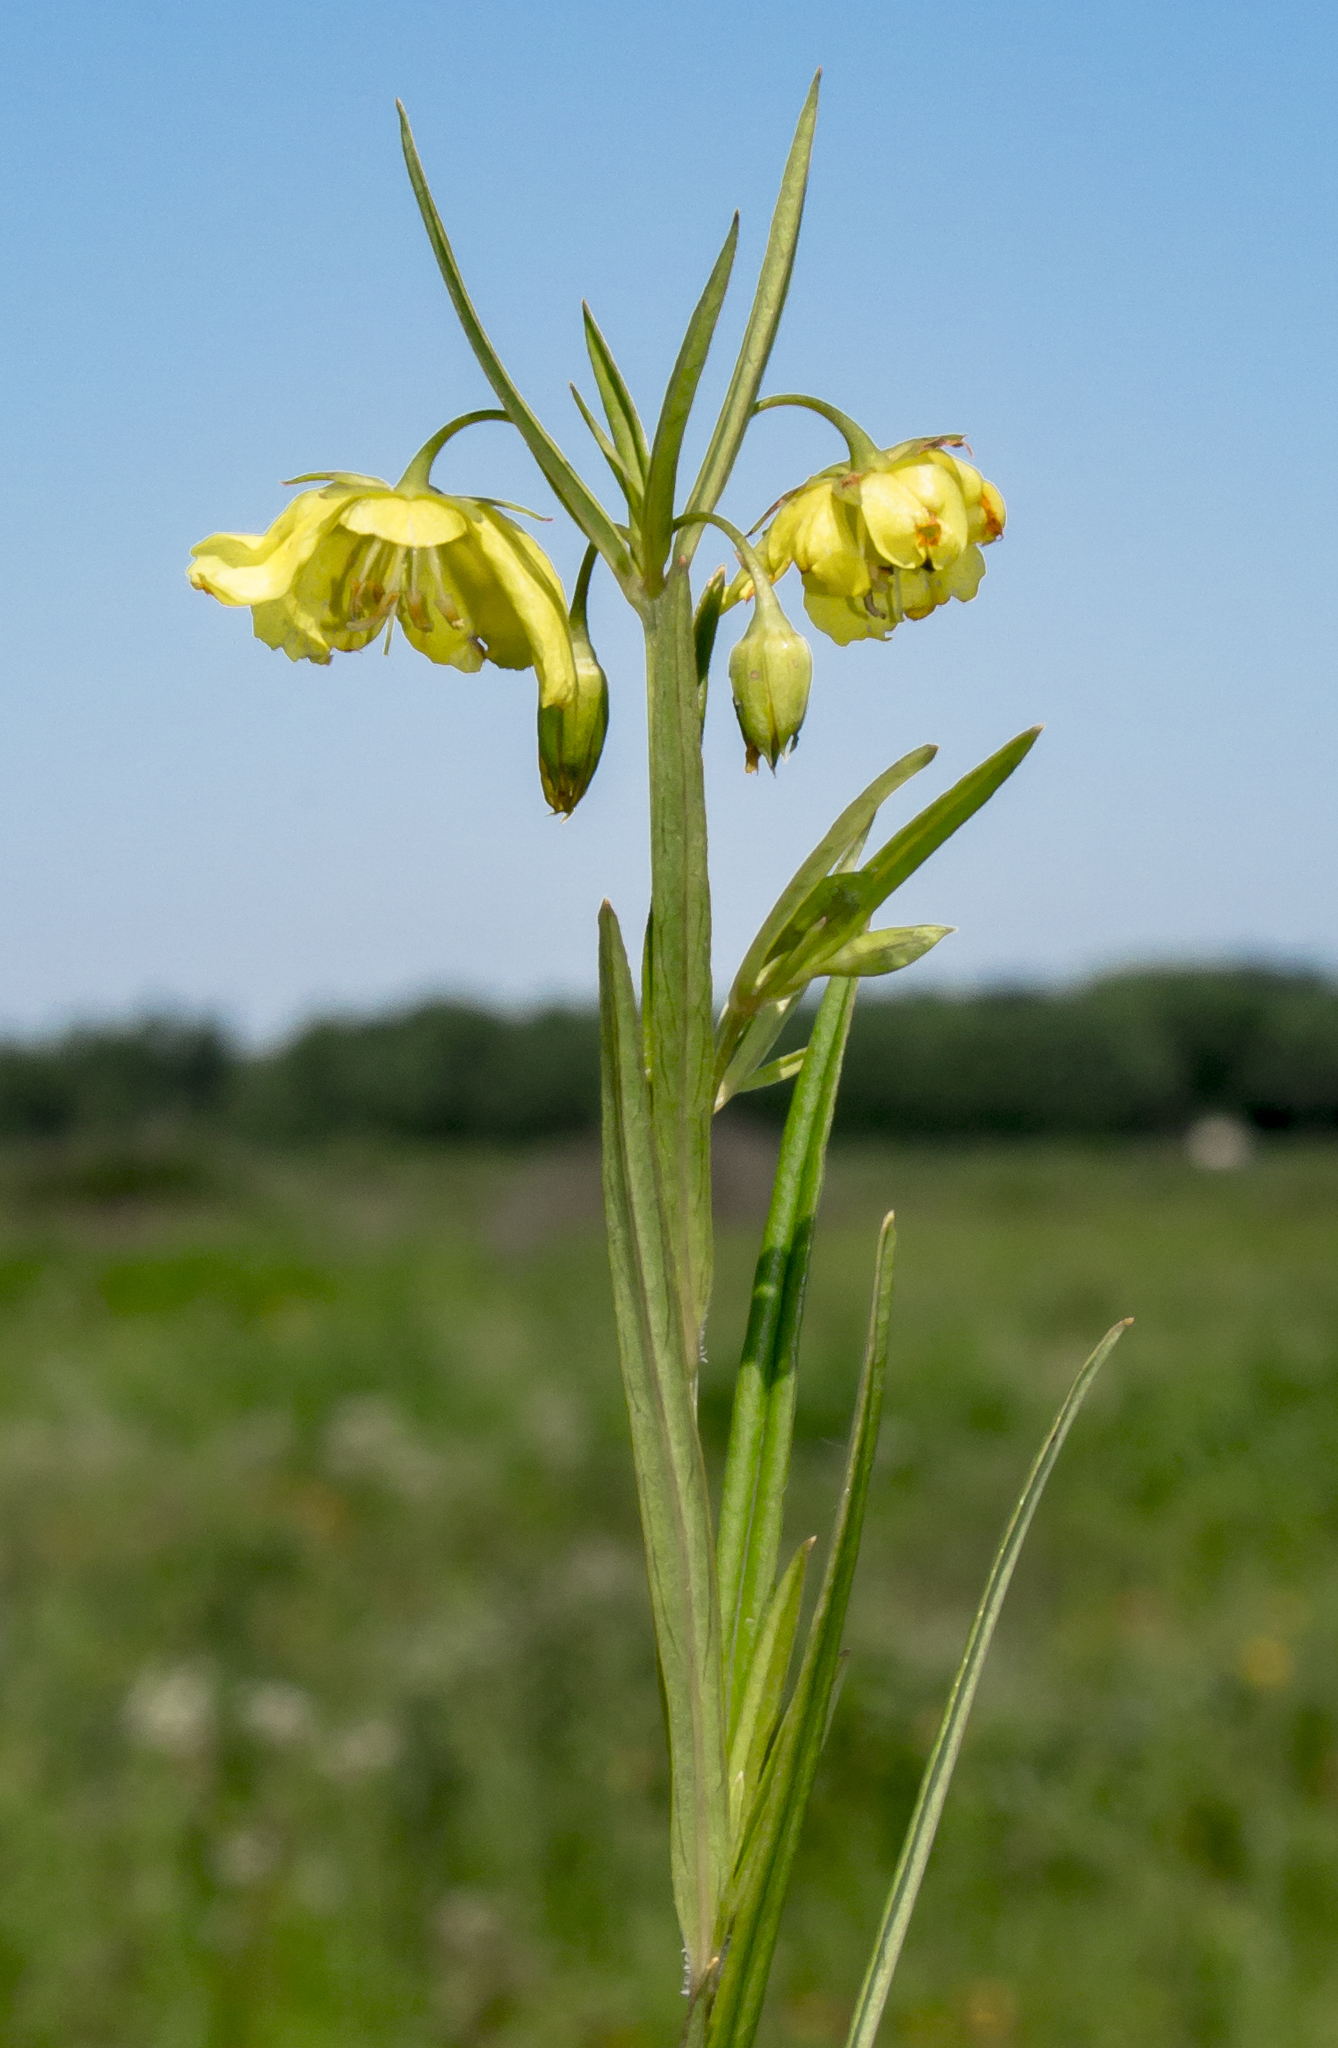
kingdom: Plantae
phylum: Tracheophyta
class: Magnoliopsida
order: Ericales
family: Primulaceae
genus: Lysimachia
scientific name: Lysimachia quadriflora
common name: Four-flowered loosestrife
